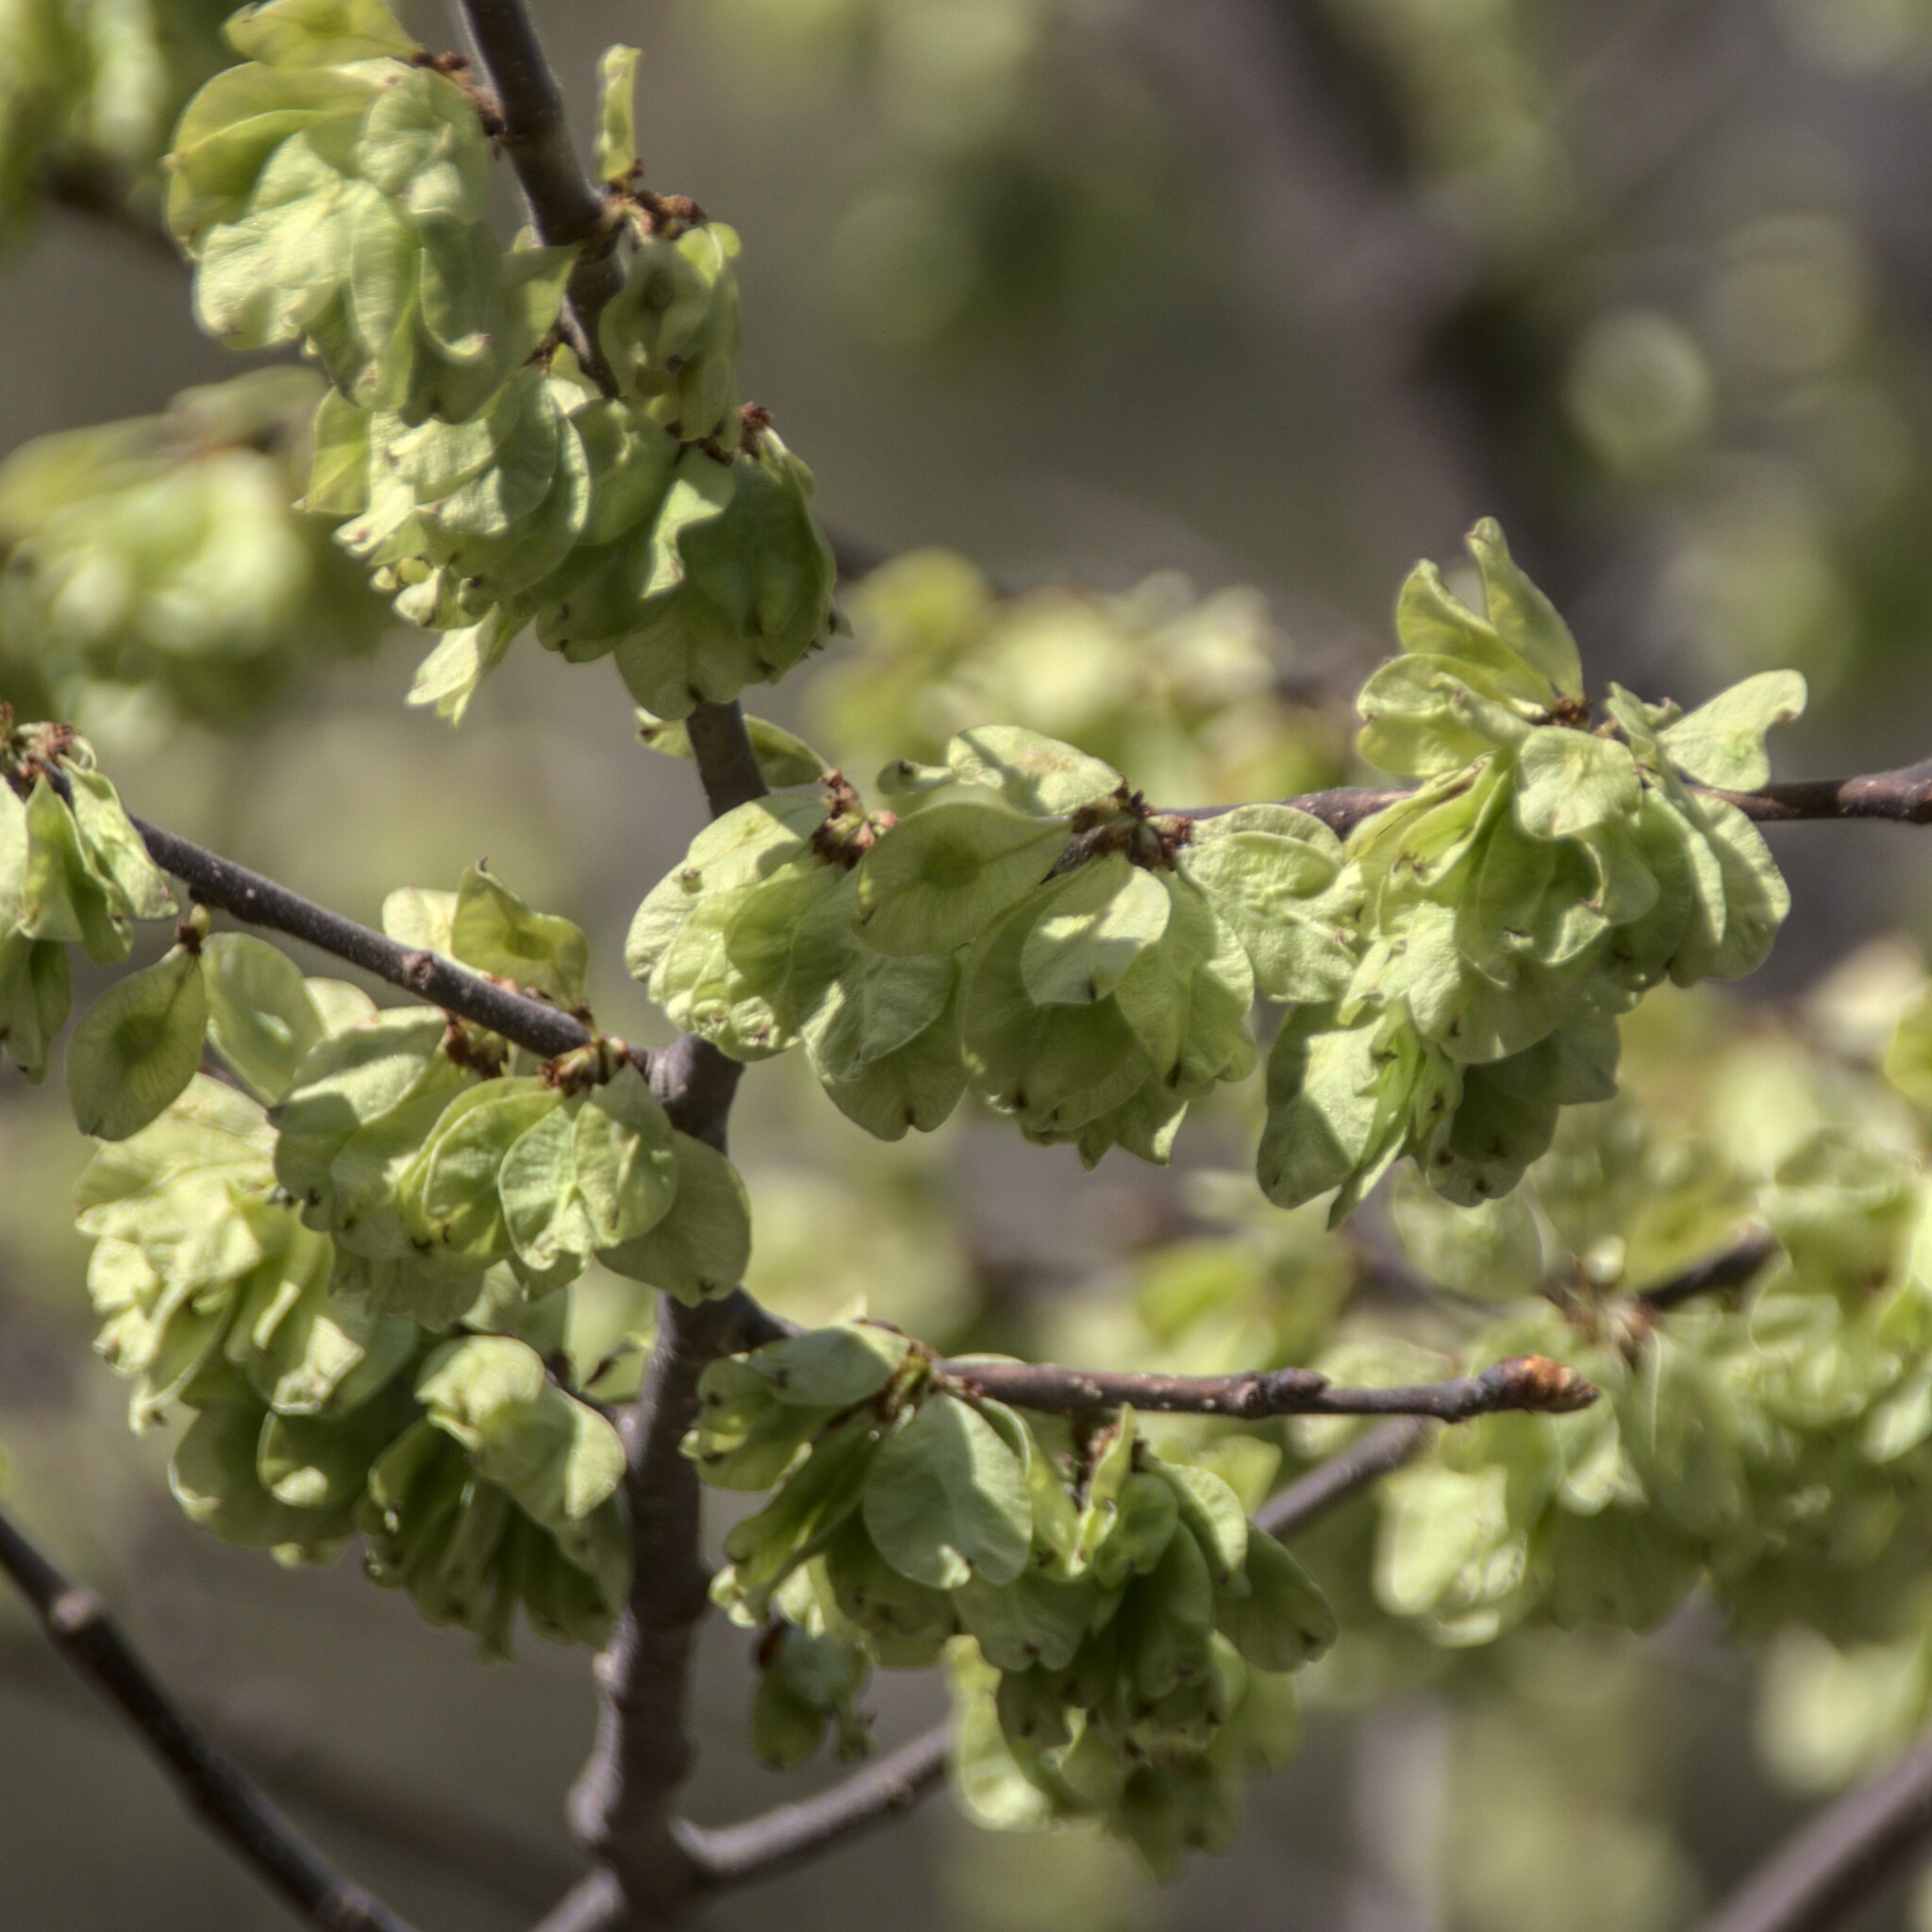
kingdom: Plantae
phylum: Tracheophyta
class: Magnoliopsida
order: Rosales
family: Ulmaceae
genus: Ulmus
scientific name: Ulmus glabra
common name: Wych elm
